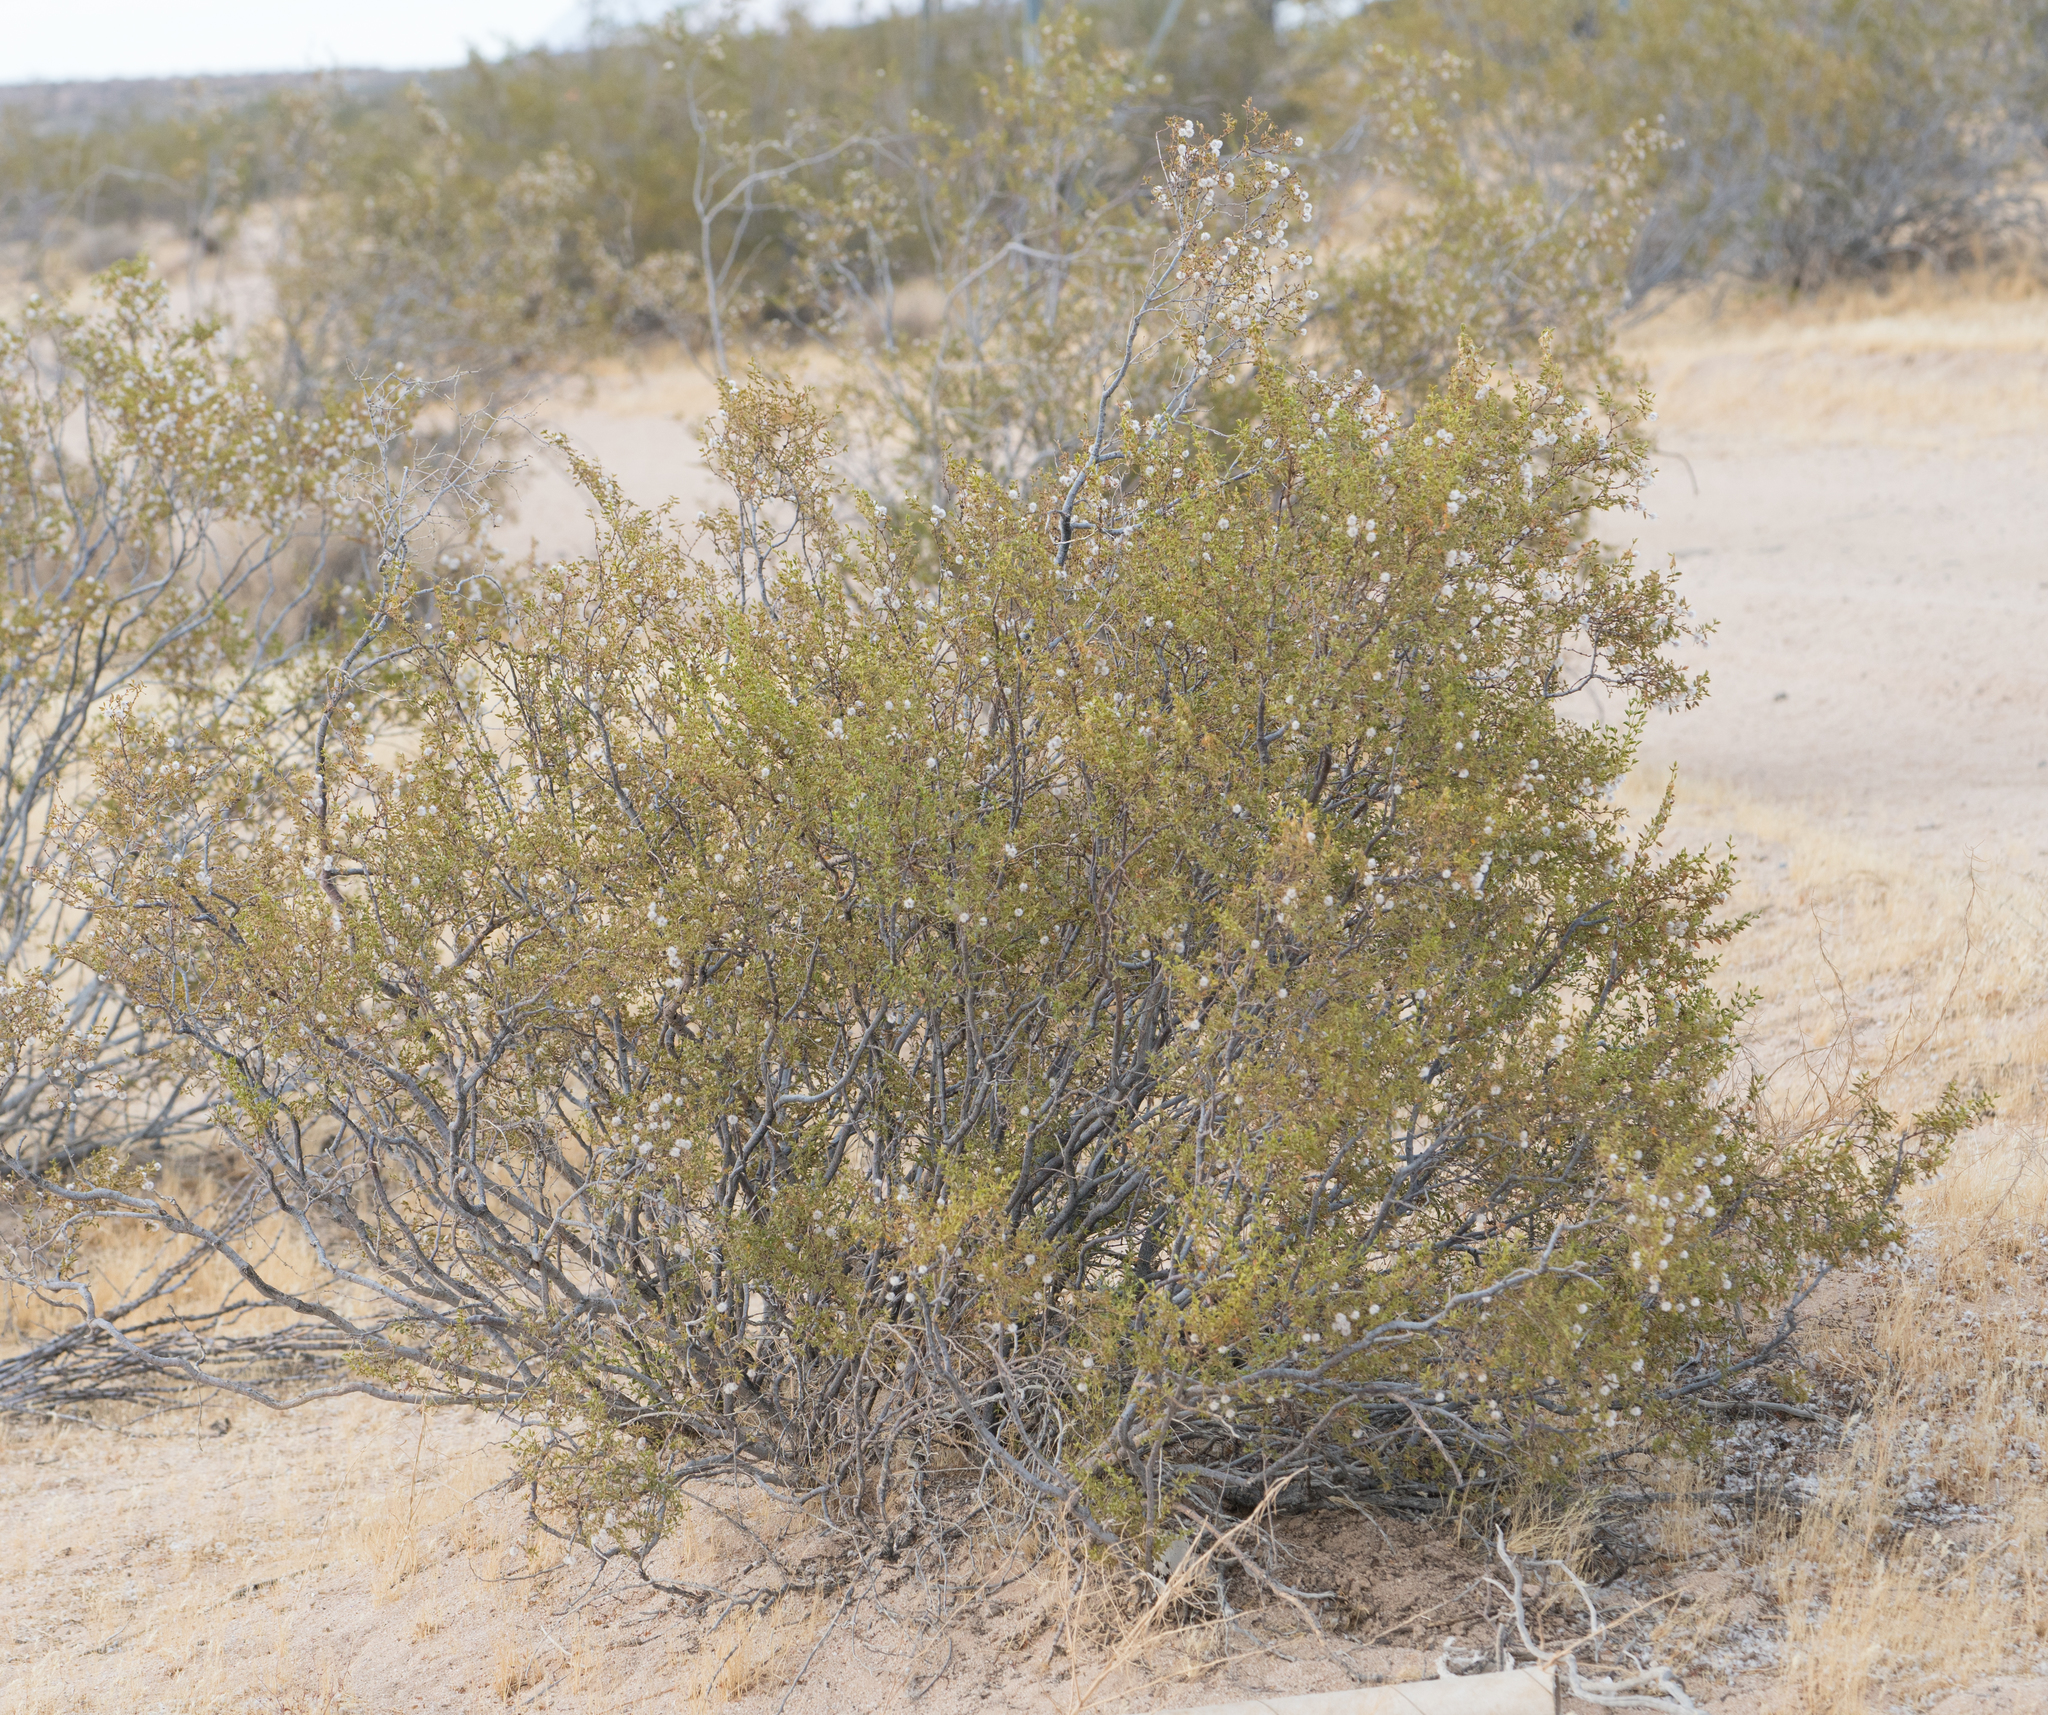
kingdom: Plantae
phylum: Tracheophyta
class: Magnoliopsida
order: Zygophyllales
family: Zygophyllaceae
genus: Larrea
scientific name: Larrea tridentata
